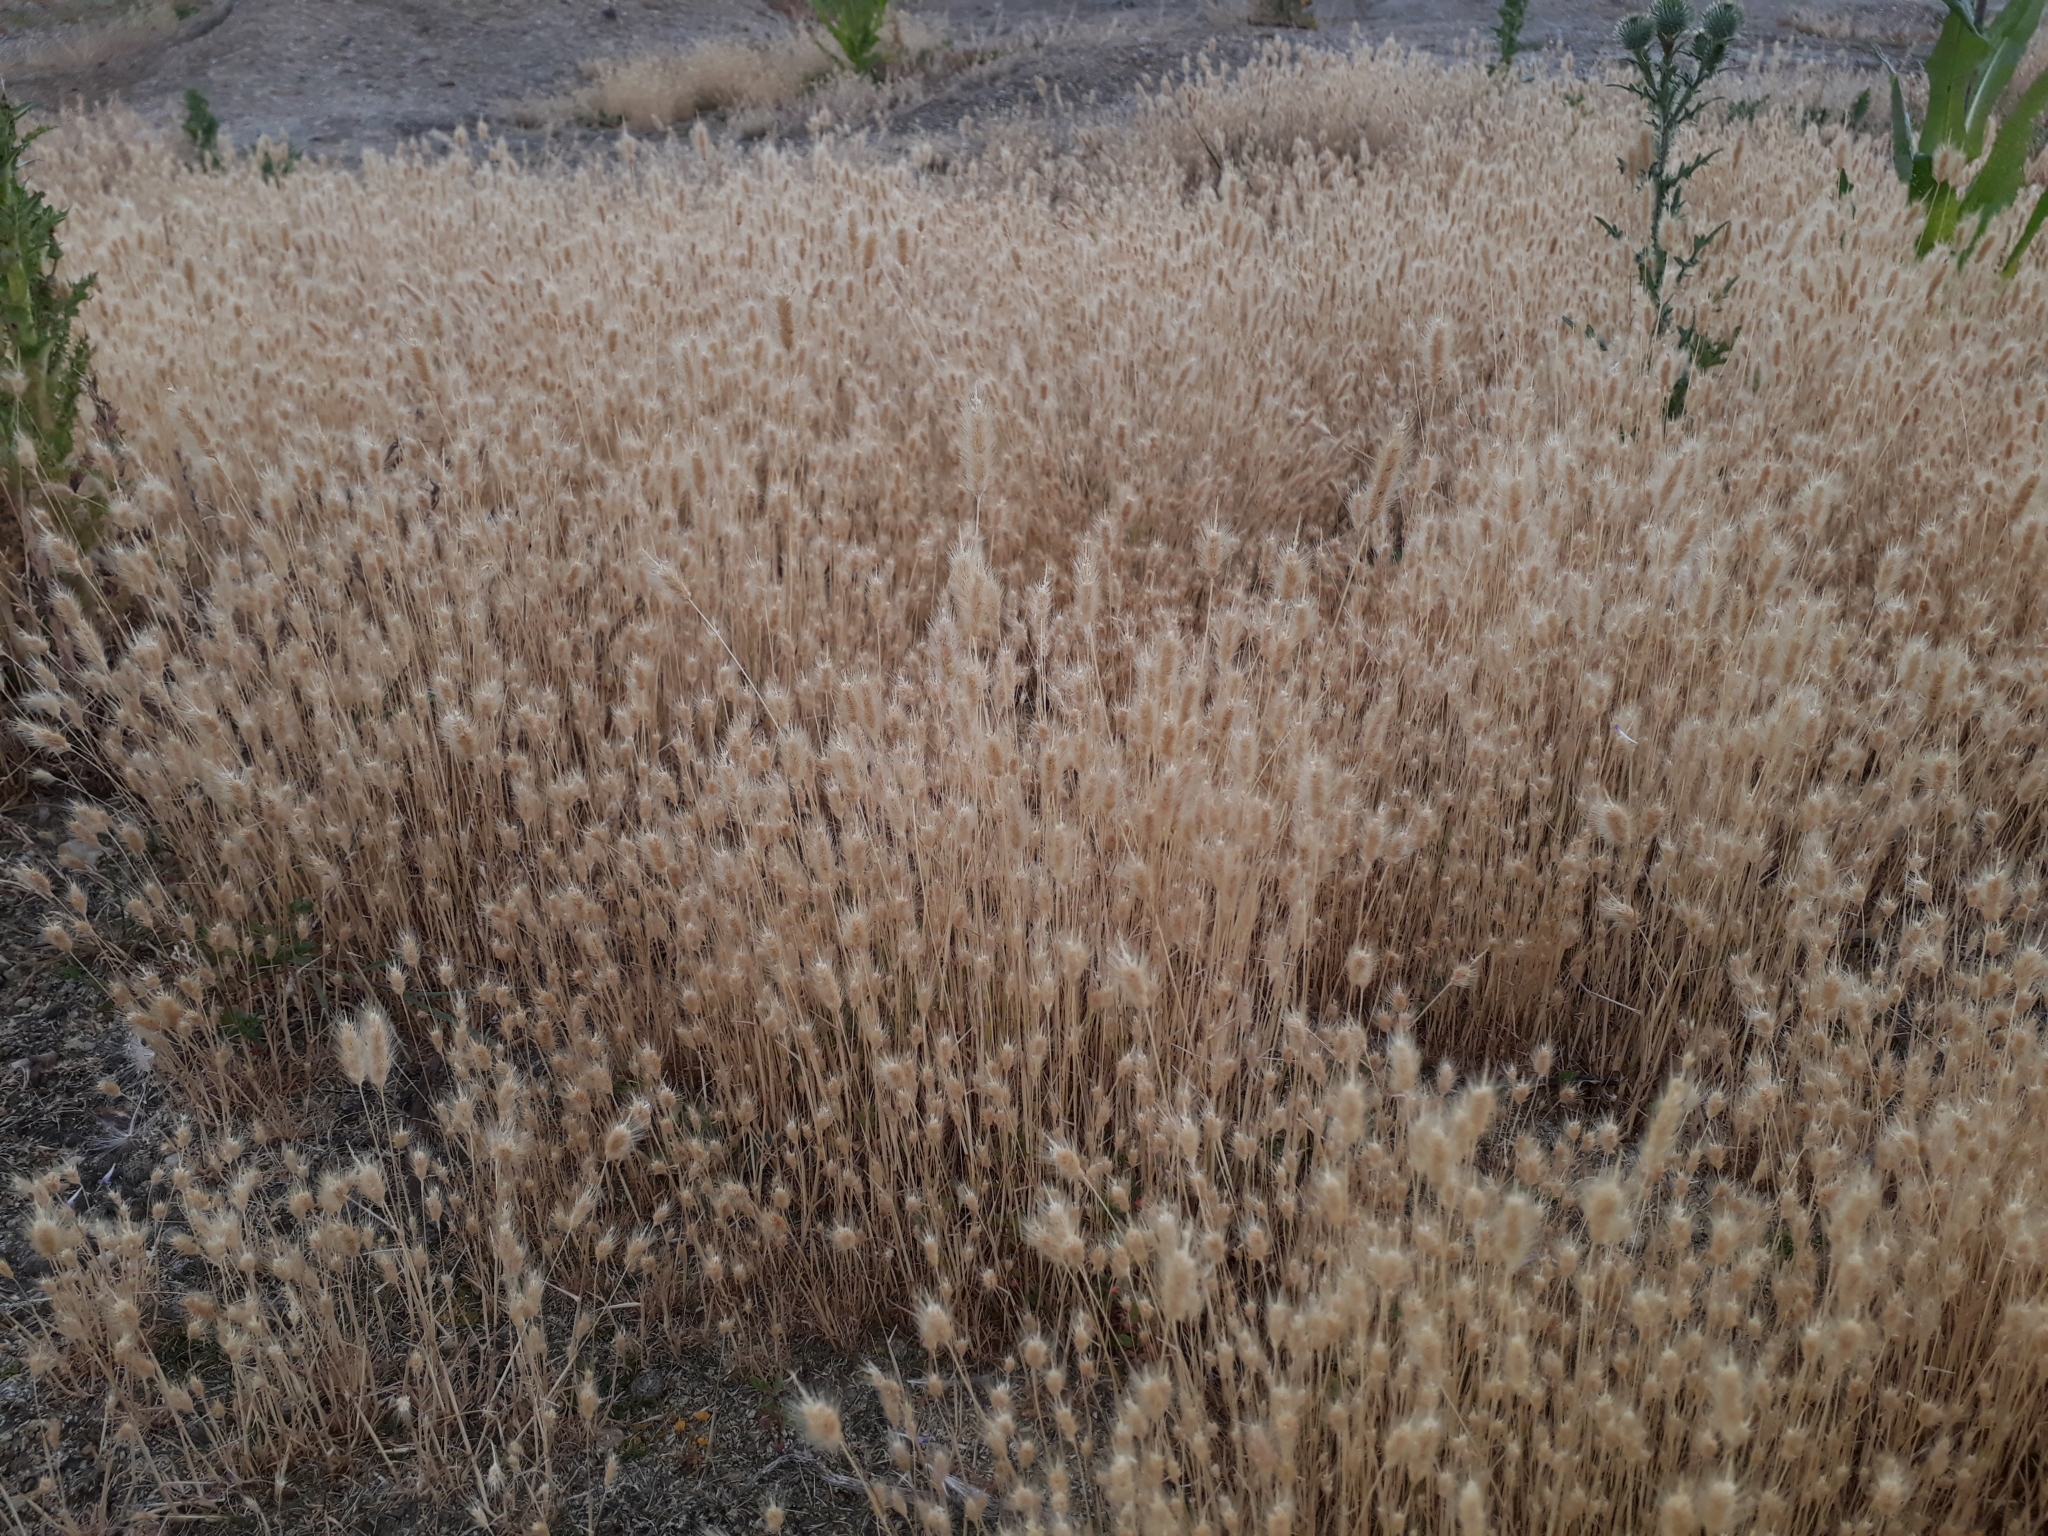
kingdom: Plantae
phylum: Tracheophyta
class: Liliopsida
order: Poales
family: Poaceae
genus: Lagurus
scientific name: Lagurus ovatus
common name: Hare's-tail
